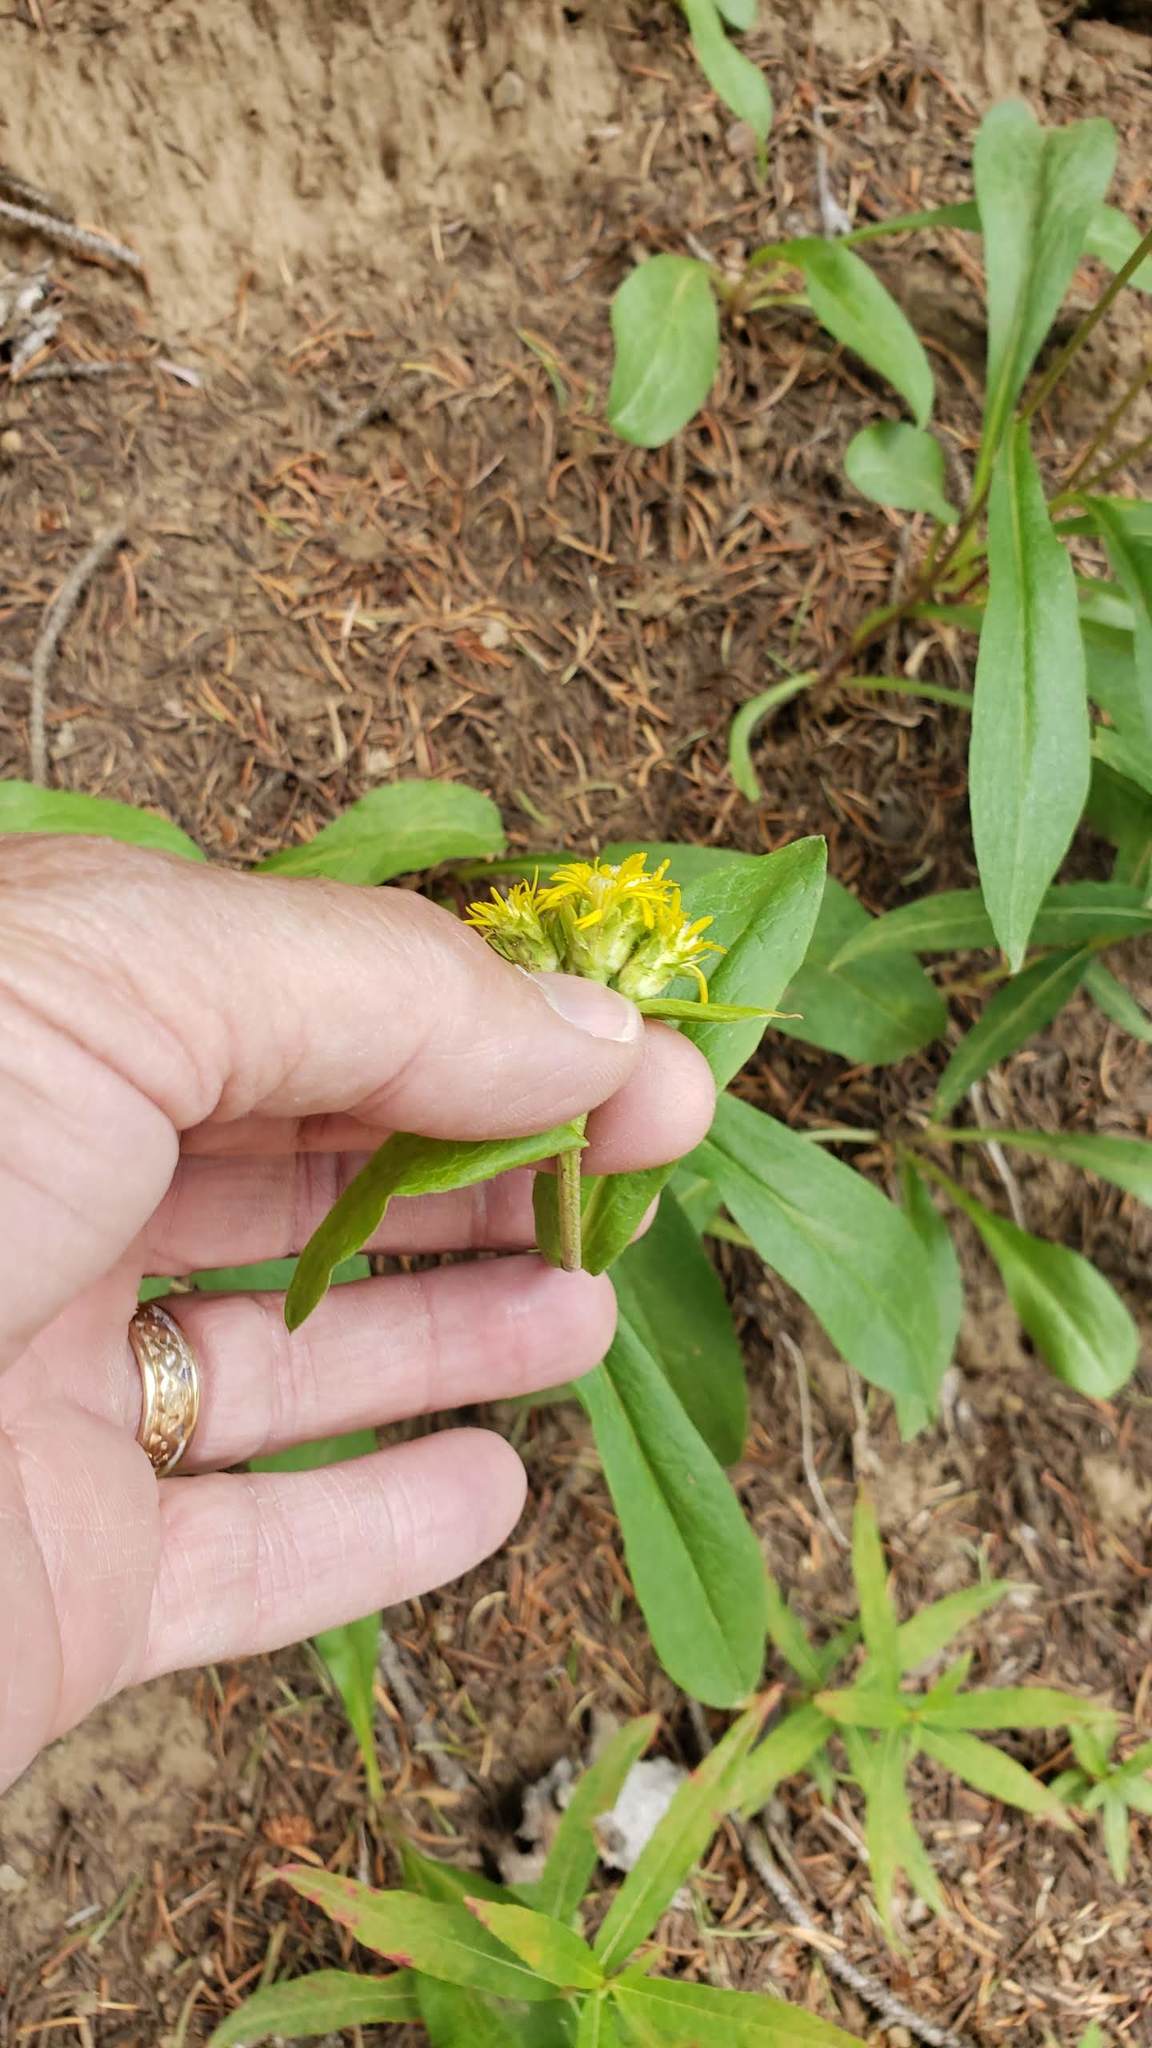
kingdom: Plantae
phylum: Tracheophyta
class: Magnoliopsida
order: Asterales
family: Asteraceae
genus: Oreochrysum
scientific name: Oreochrysum parryi
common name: Parry's goldenweed
